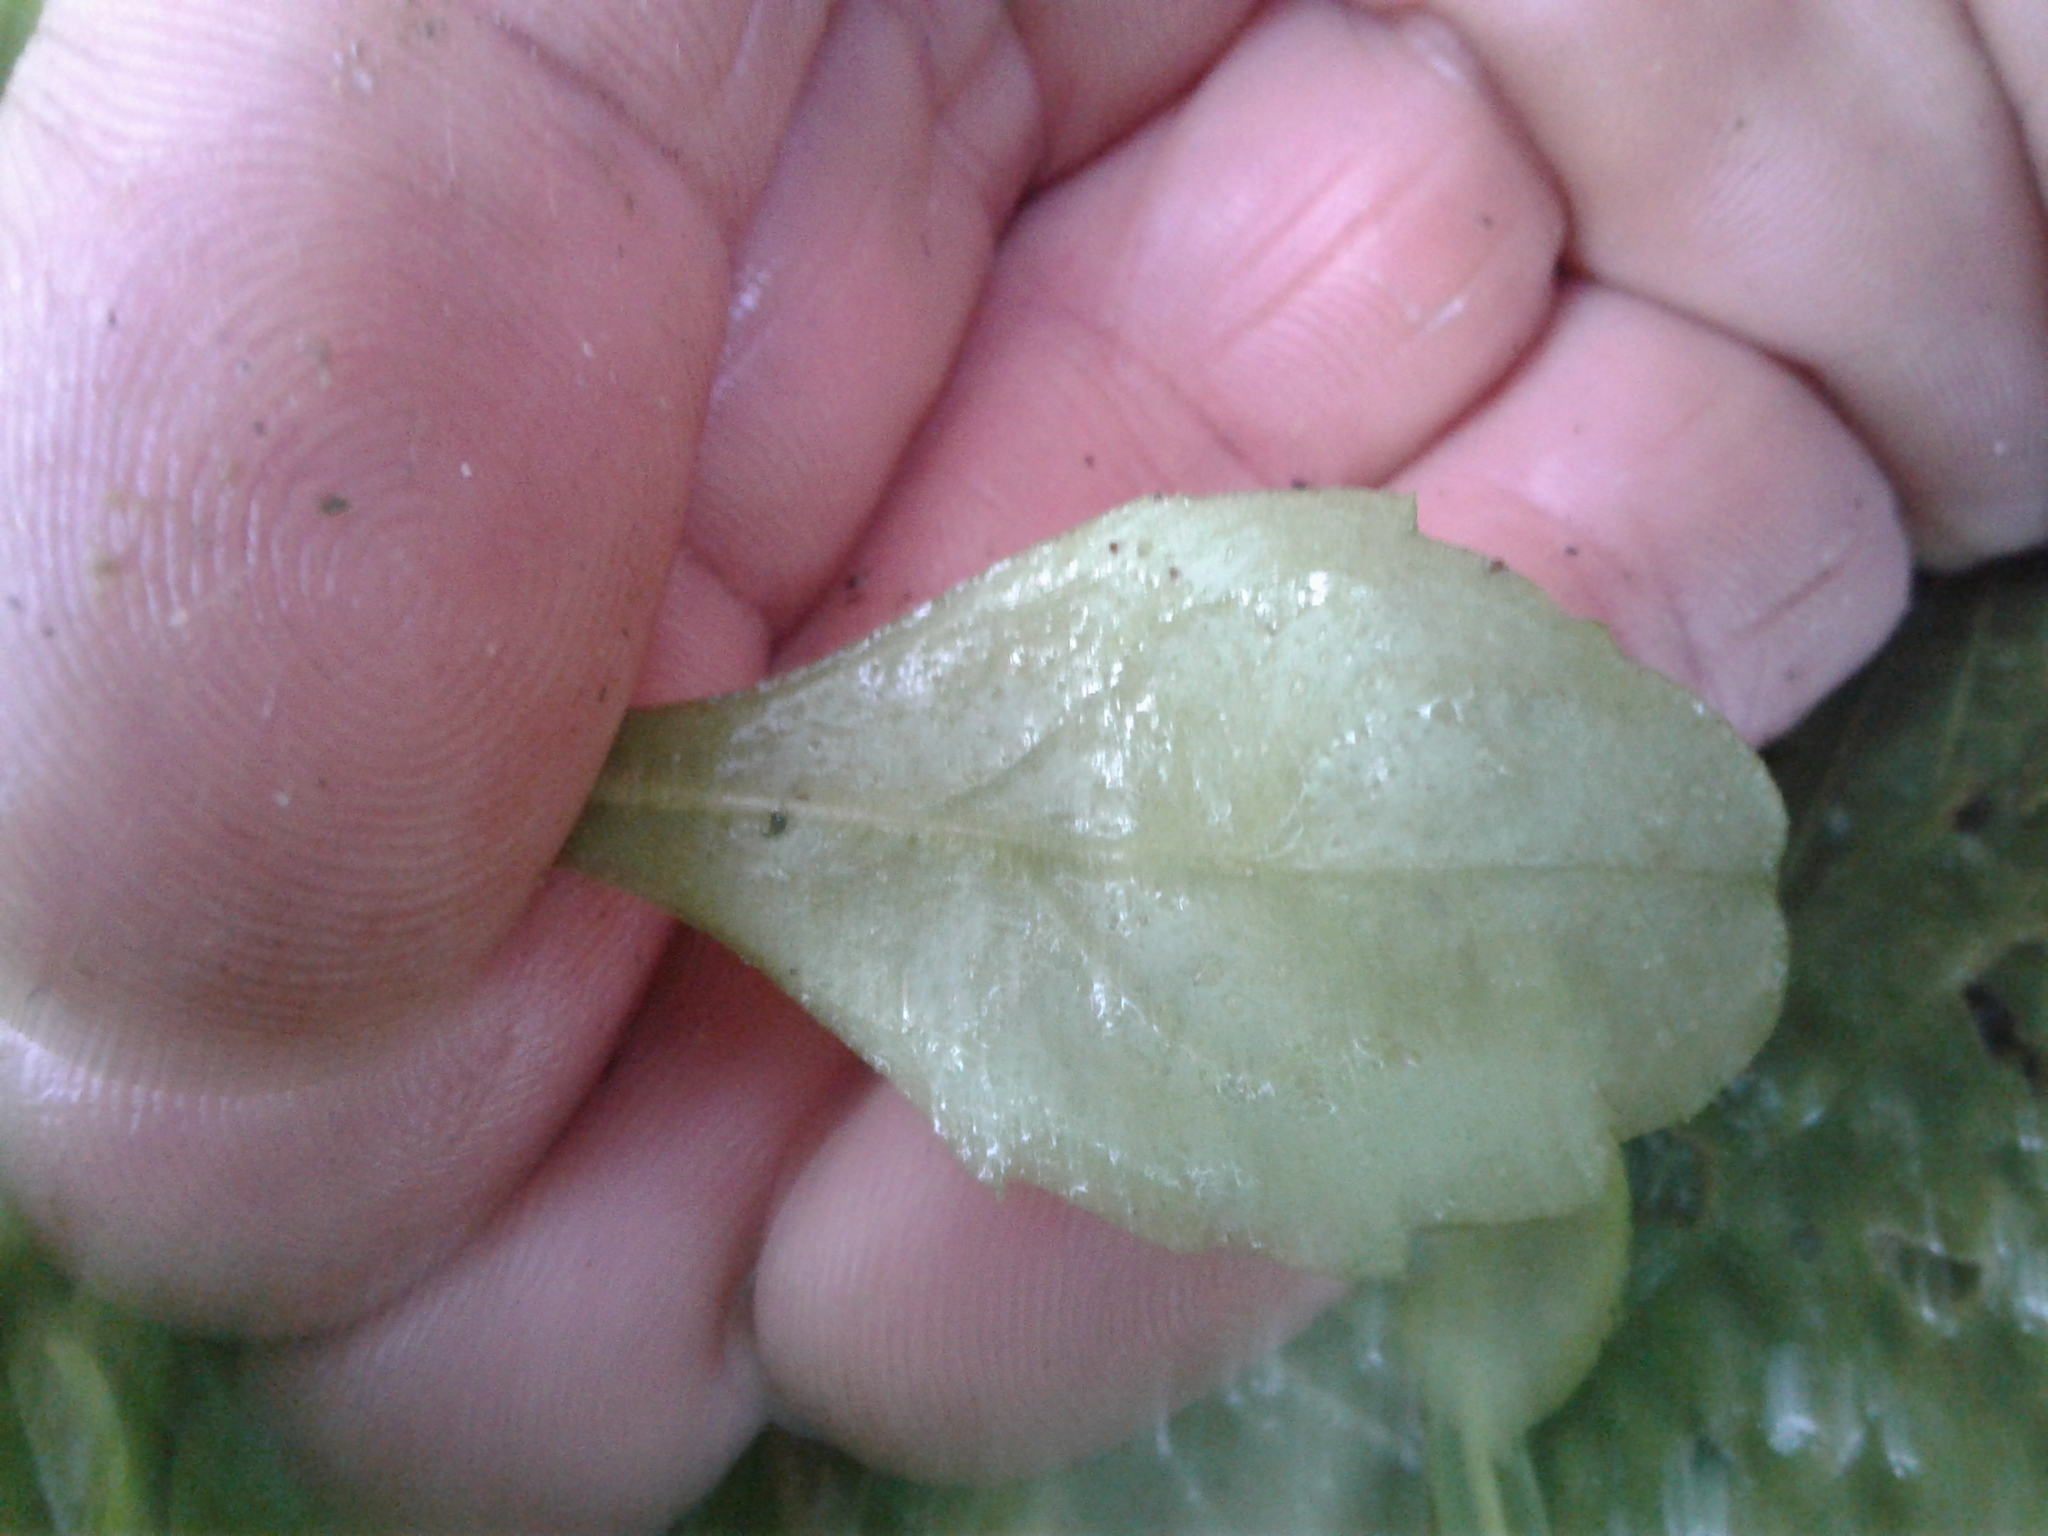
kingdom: Plantae
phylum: Tracheophyta
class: Magnoliopsida
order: Asterales
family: Asteraceae
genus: Bellis
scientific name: Bellis perennis
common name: Lawndaisy
